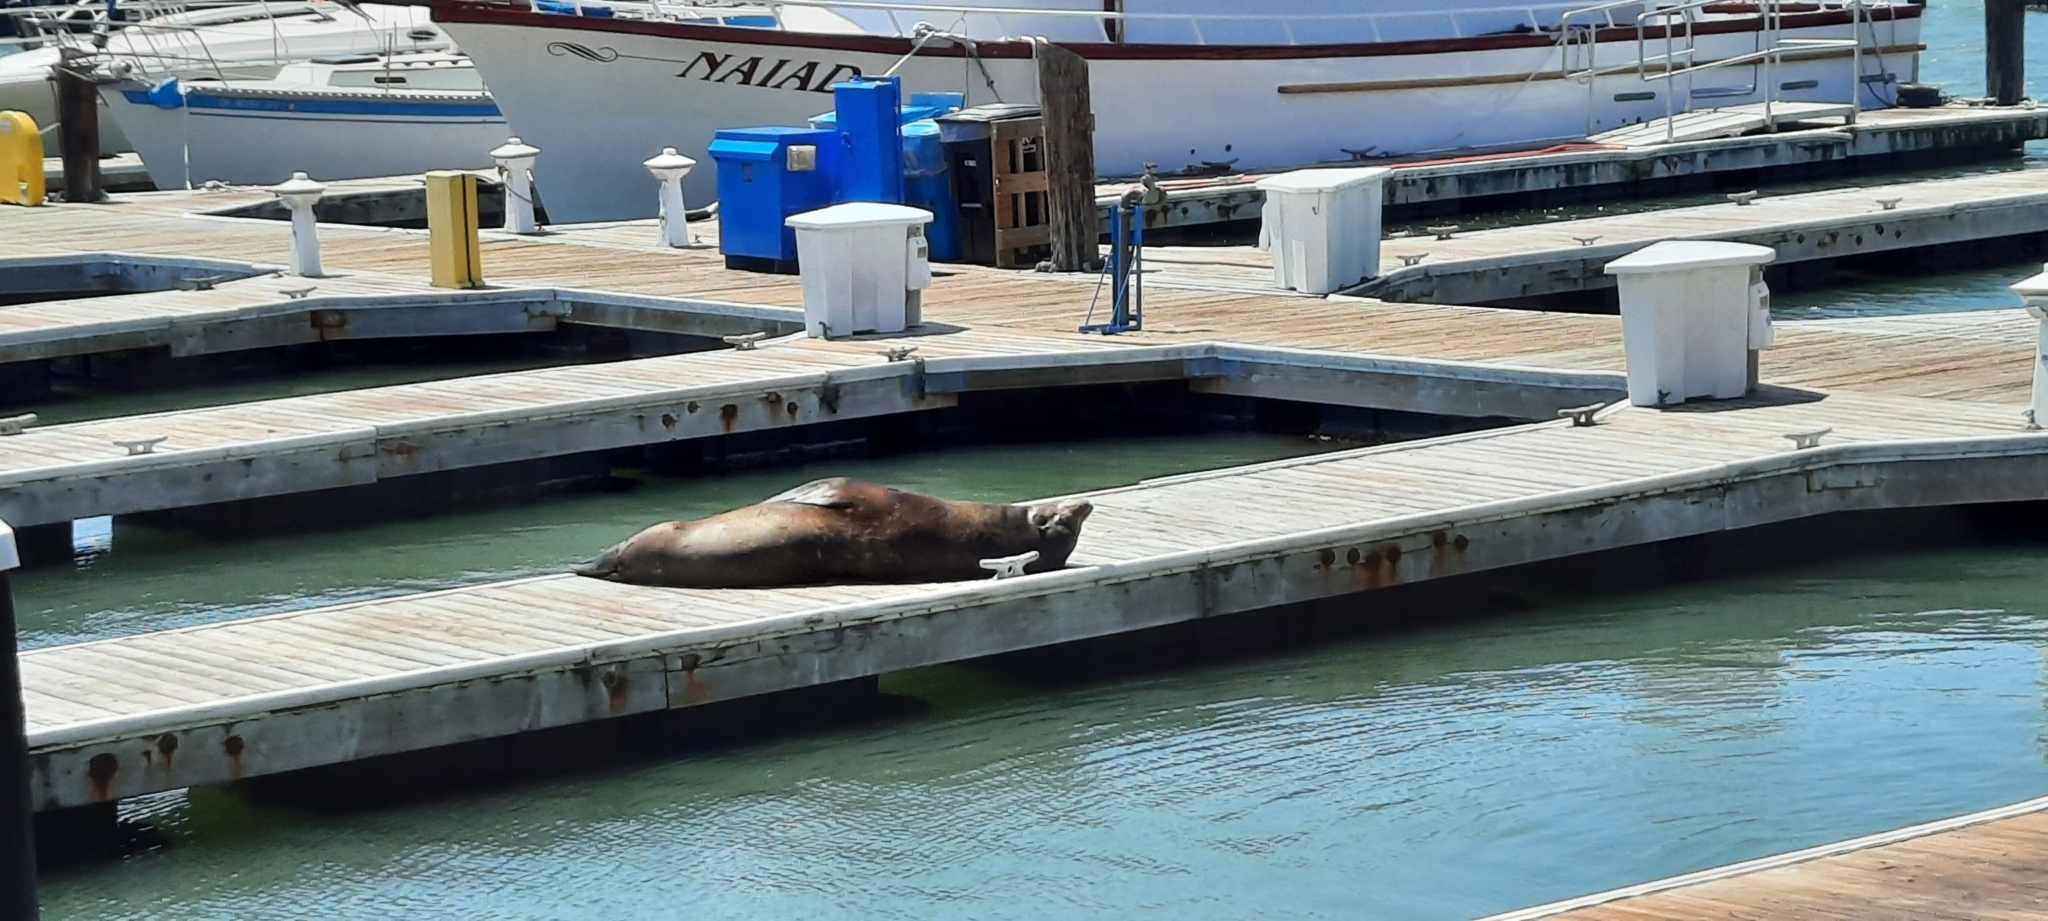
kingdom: Animalia
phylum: Chordata
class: Mammalia
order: Carnivora
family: Otariidae
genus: Zalophus
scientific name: Zalophus californianus
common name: California sea lion
